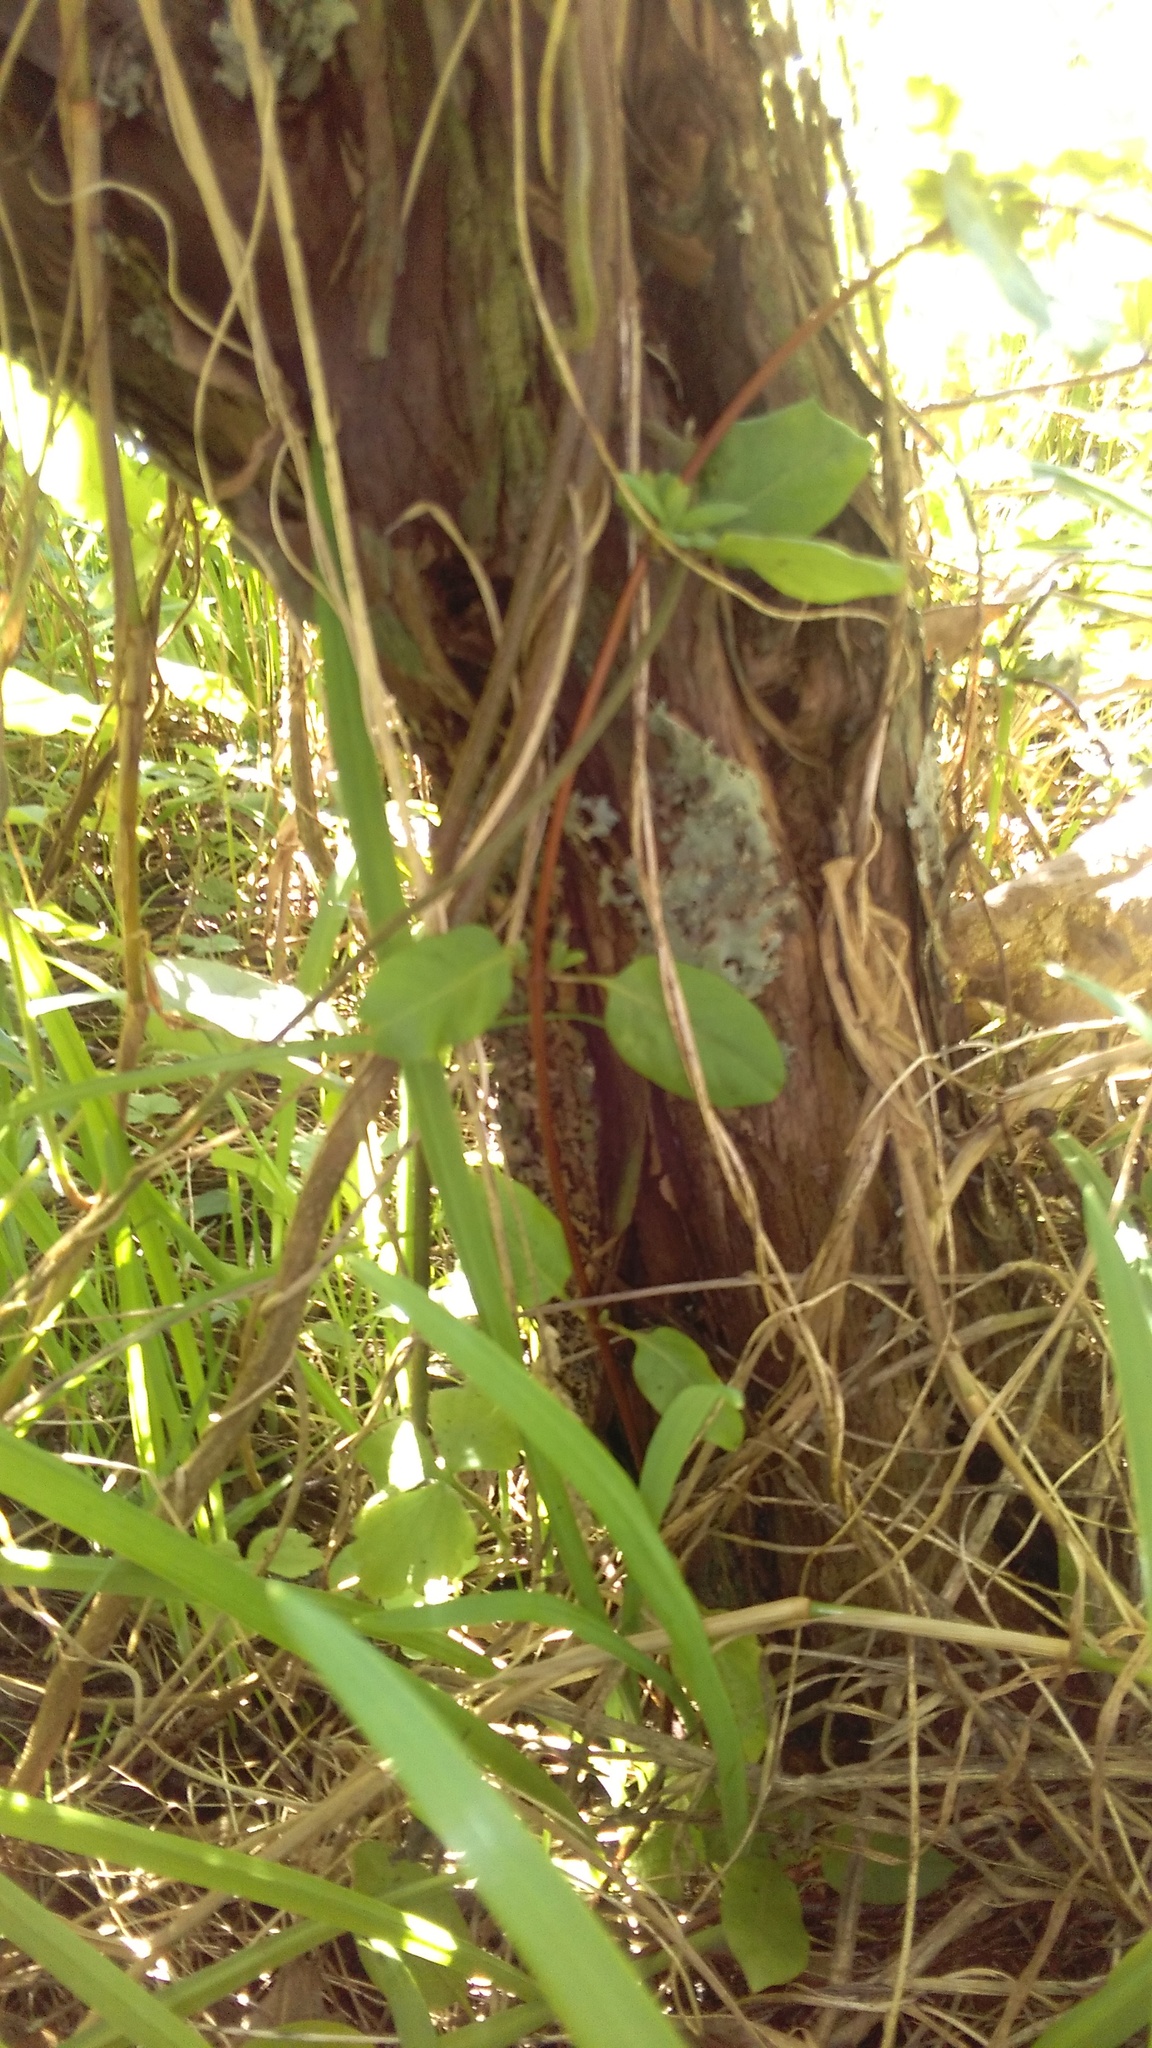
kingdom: Plantae
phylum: Tracheophyta
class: Magnoliopsida
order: Dipsacales
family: Caprifoliaceae
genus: Lonicera
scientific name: Lonicera japonica
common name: Japanese honeysuckle
